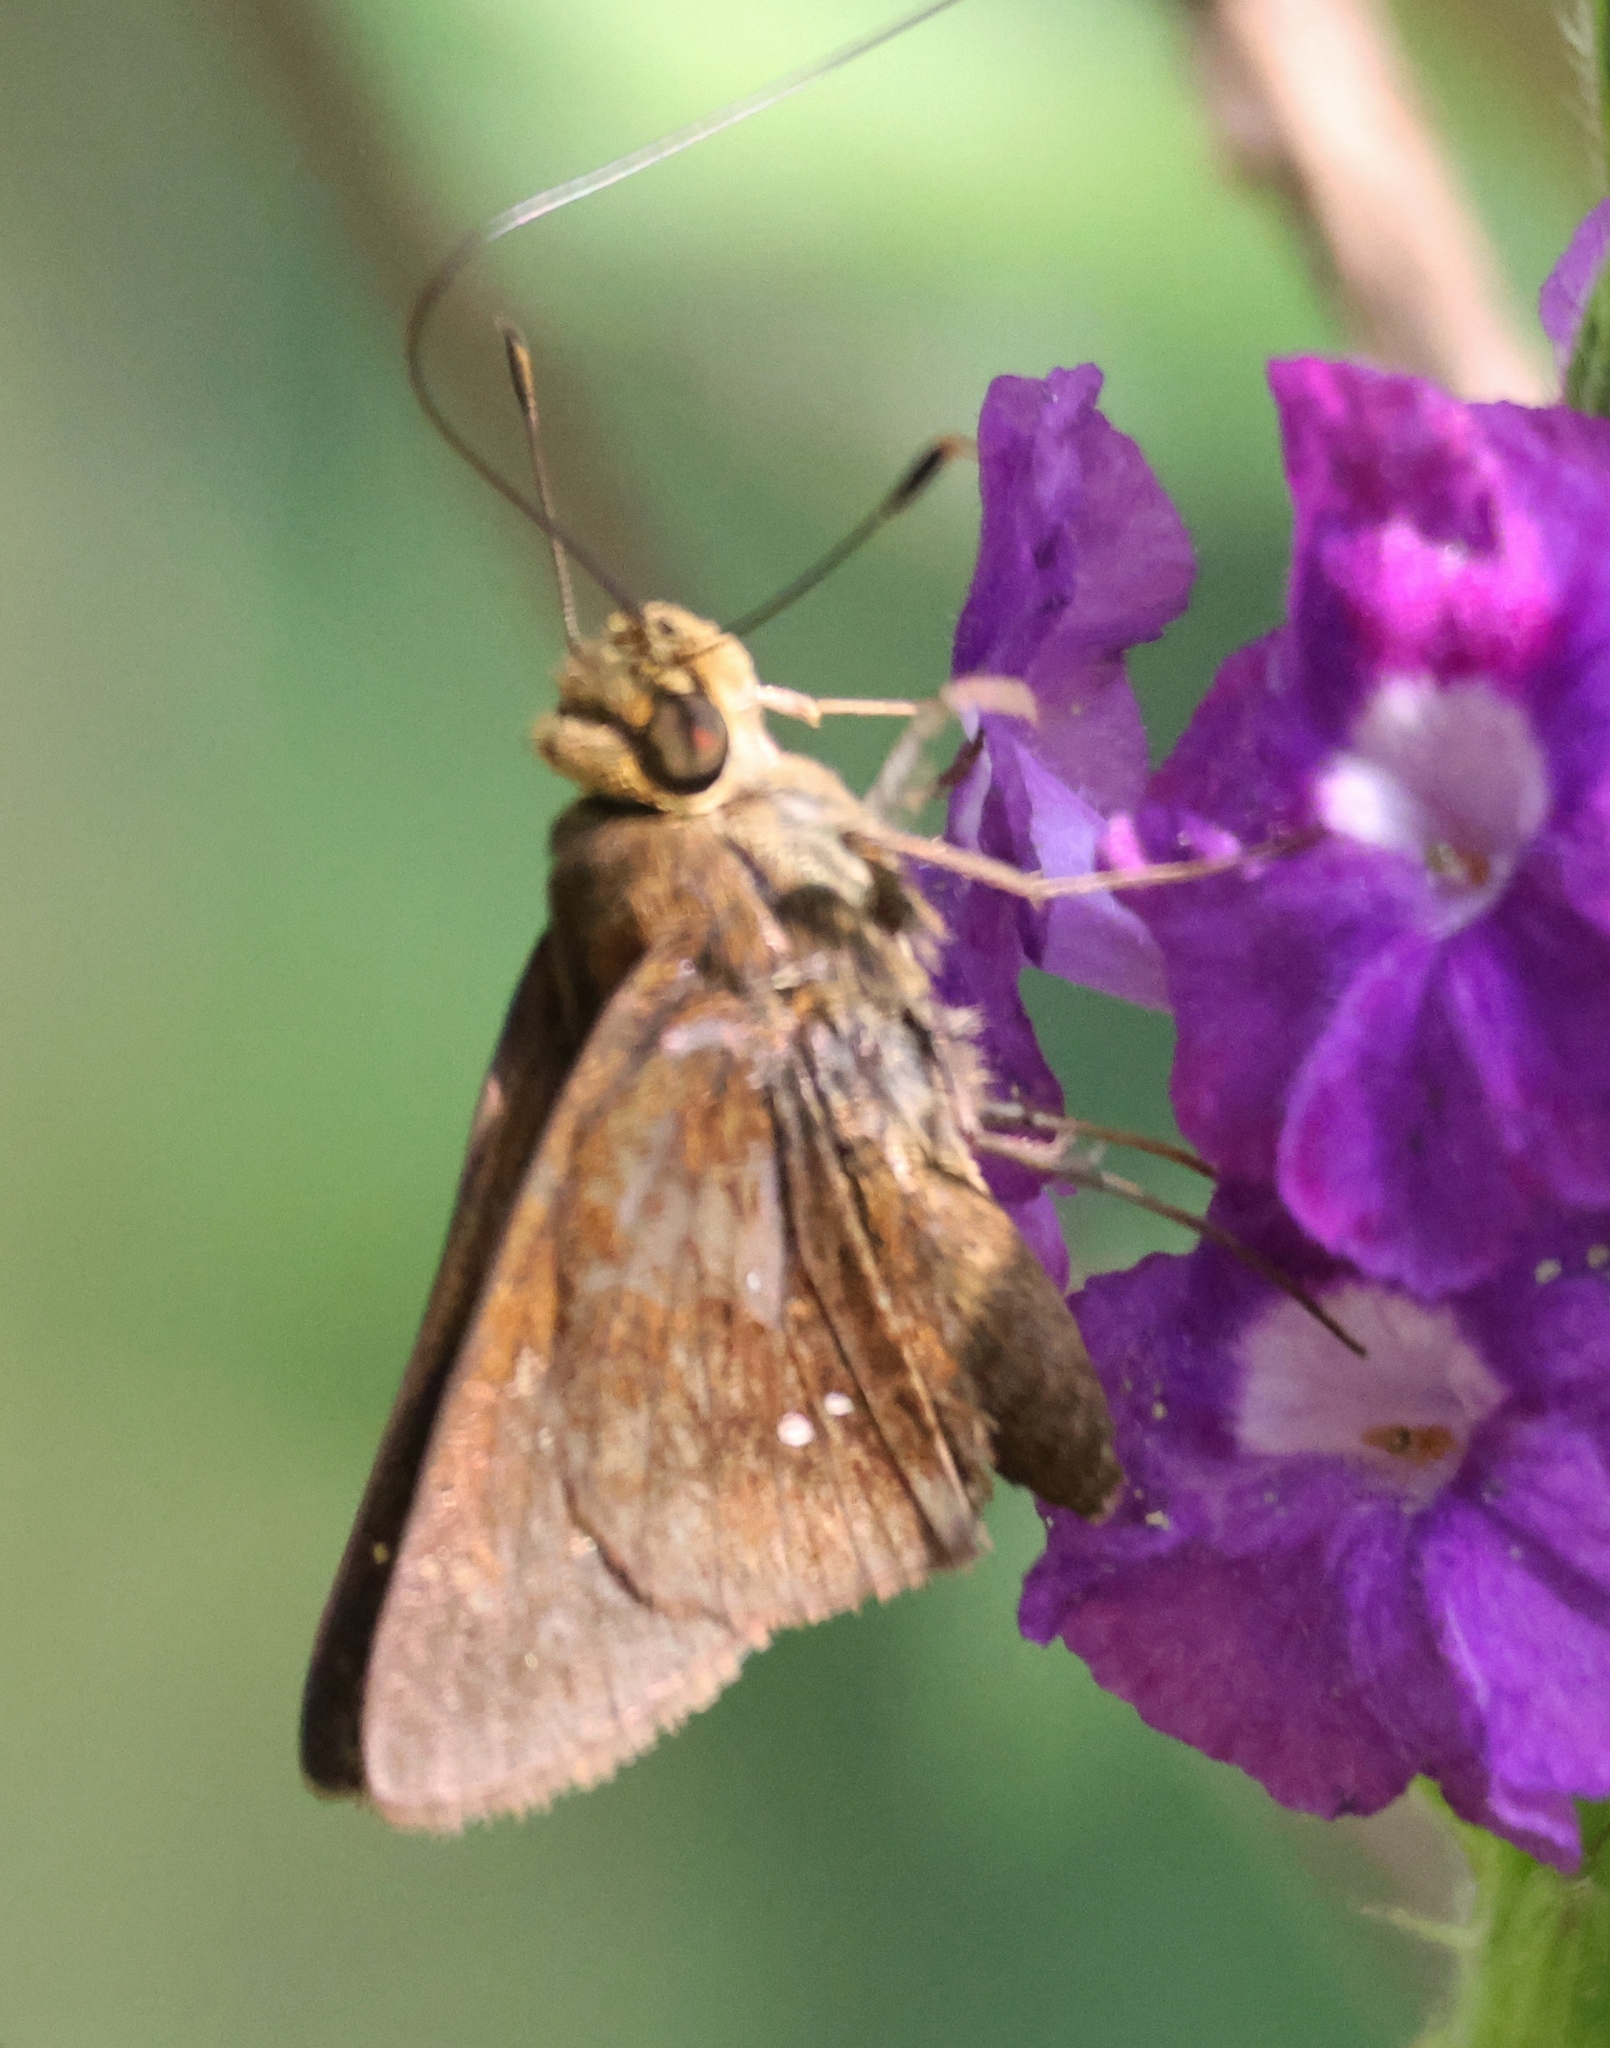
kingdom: Animalia
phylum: Arthropoda
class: Insecta
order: Lepidoptera
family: Hesperiidae
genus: Decinea
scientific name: Decinea percosius
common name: Double-dotted skipper
